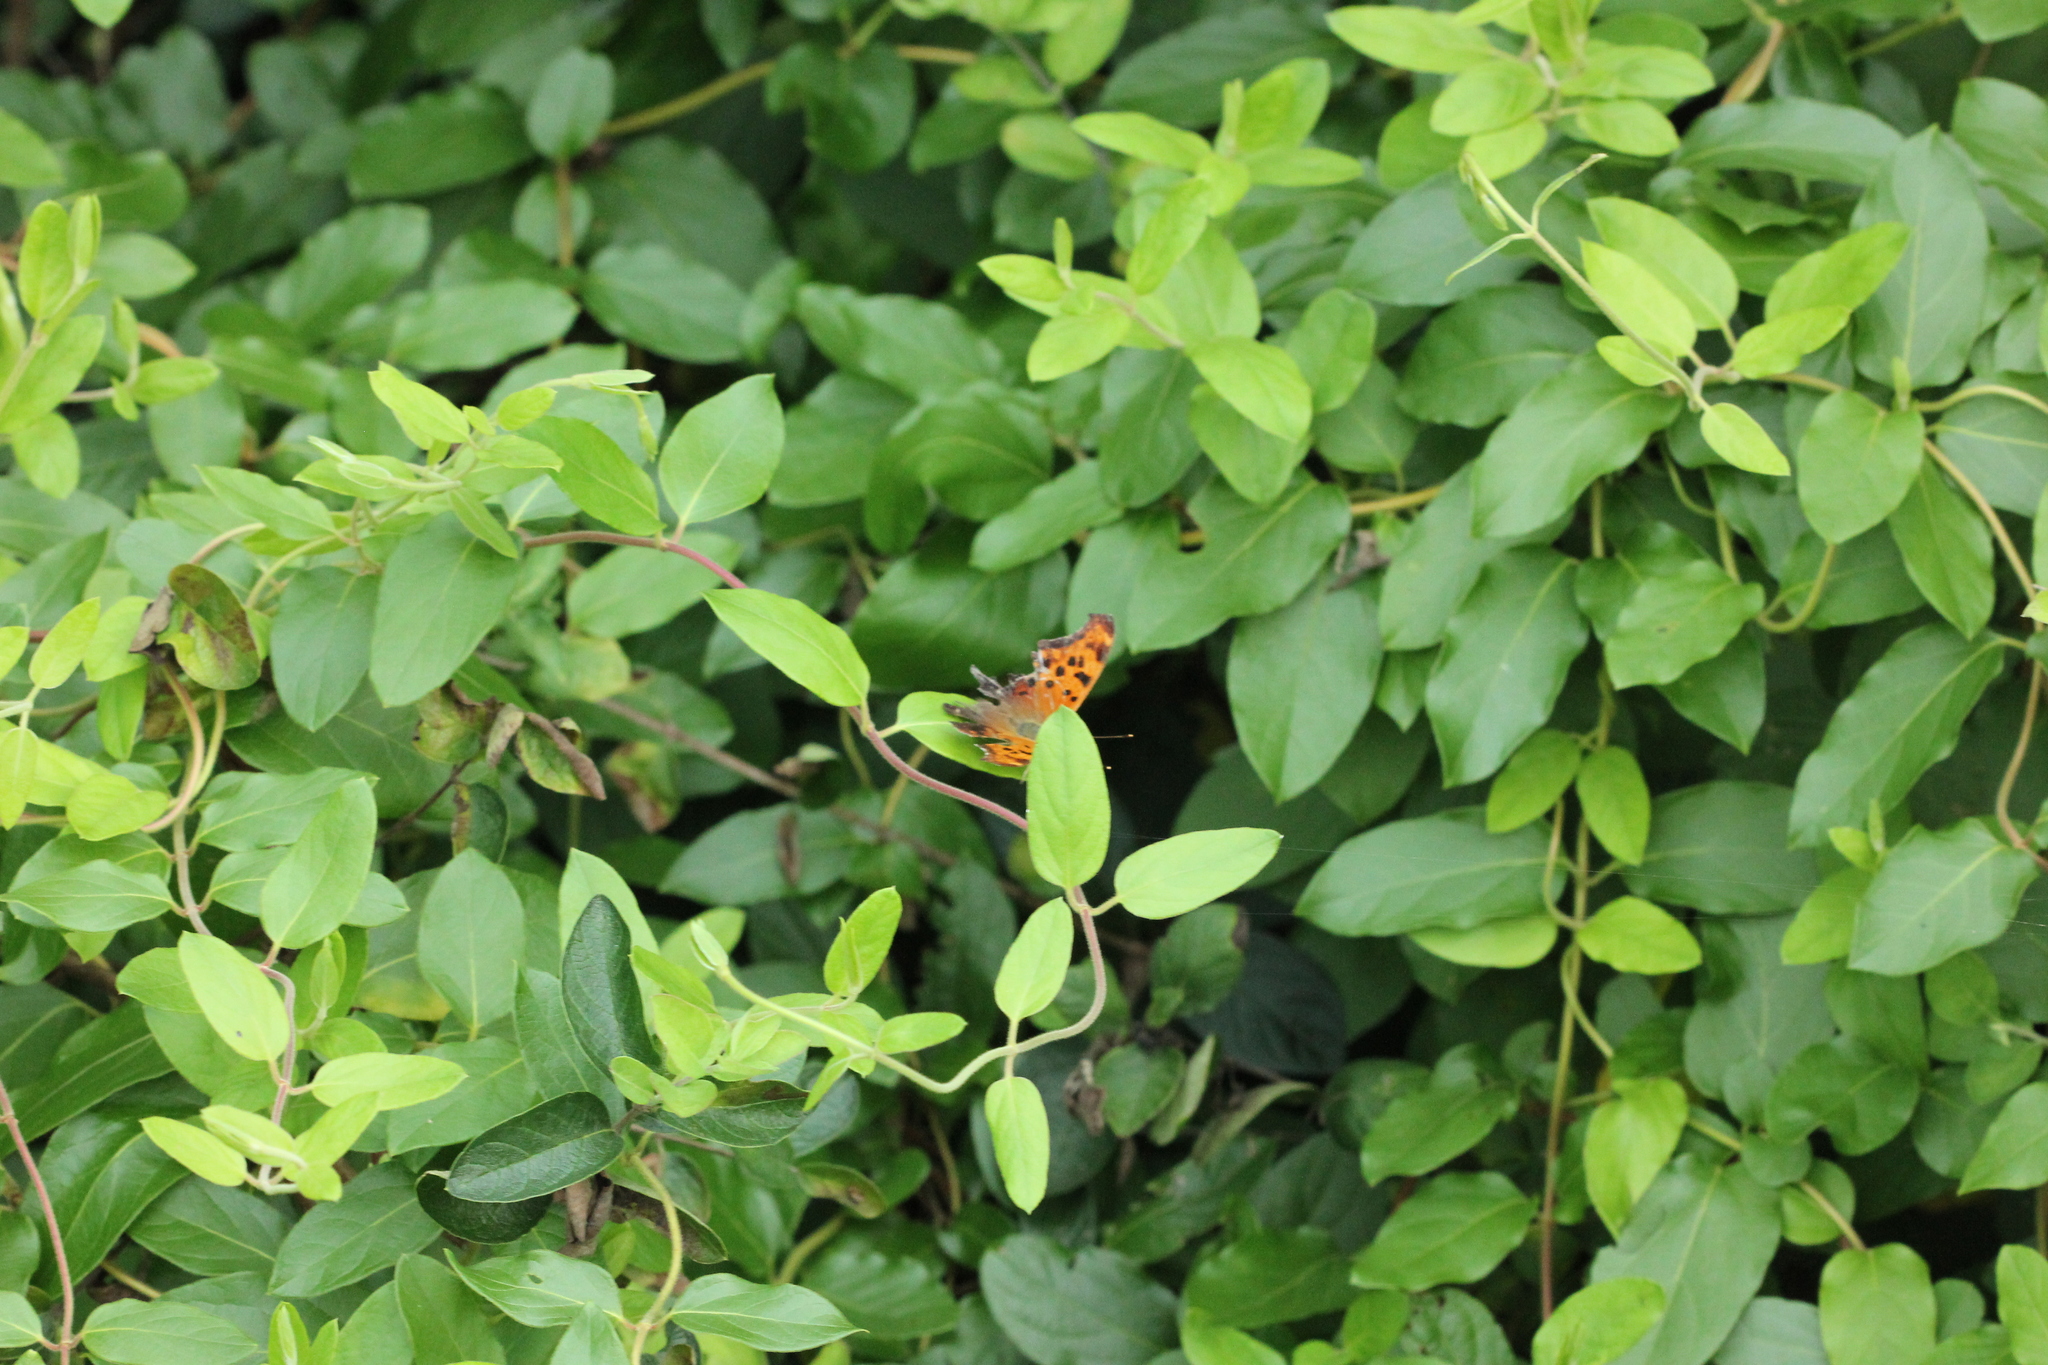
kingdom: Animalia
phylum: Arthropoda
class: Insecta
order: Lepidoptera
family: Nymphalidae
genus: Polygonia
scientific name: Polygonia interrogationis
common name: Question mark
